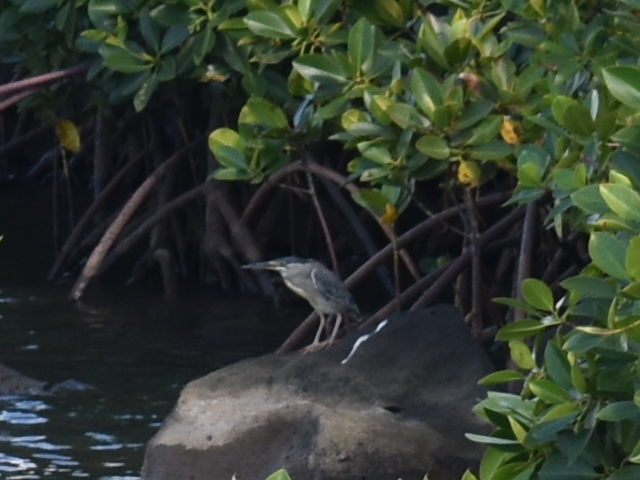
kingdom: Animalia
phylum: Chordata
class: Aves
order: Pelecaniformes
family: Ardeidae
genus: Butorides
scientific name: Butorides striata
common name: Striated heron
